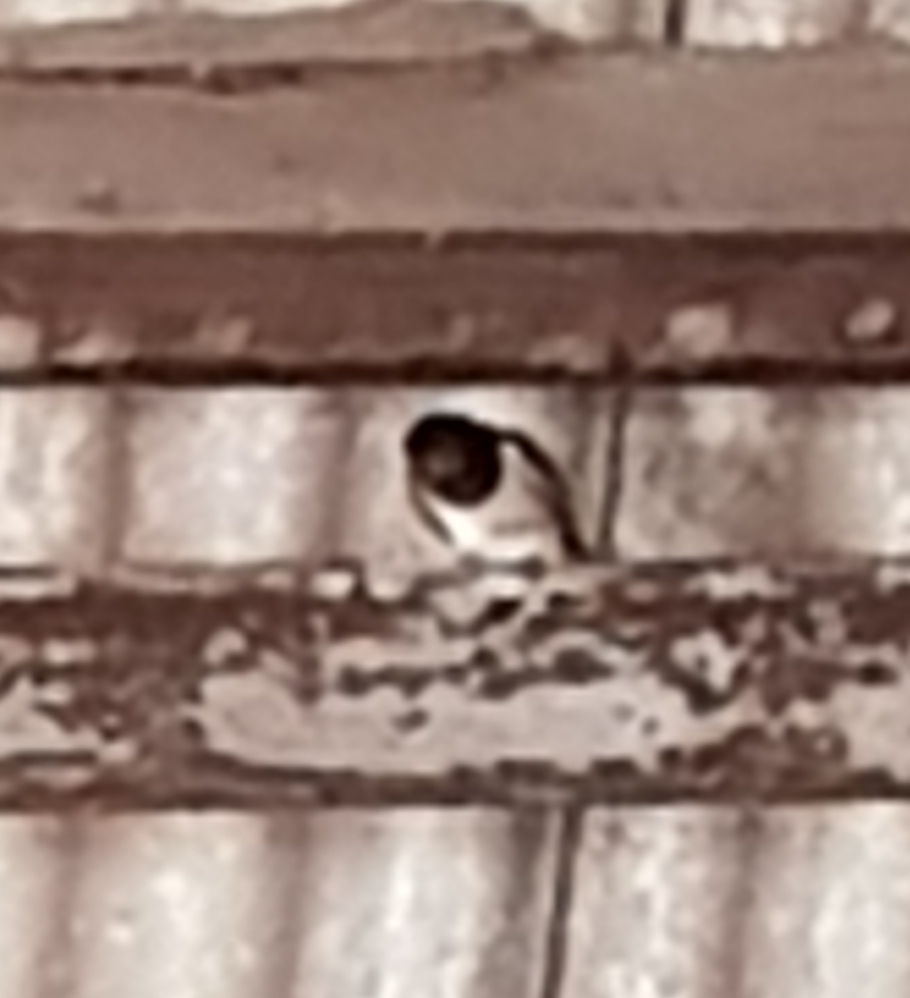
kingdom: Animalia
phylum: Chordata
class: Aves
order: Passeriformes
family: Hirundinidae
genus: Hirundo
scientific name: Hirundo rustica
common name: Barn swallow
